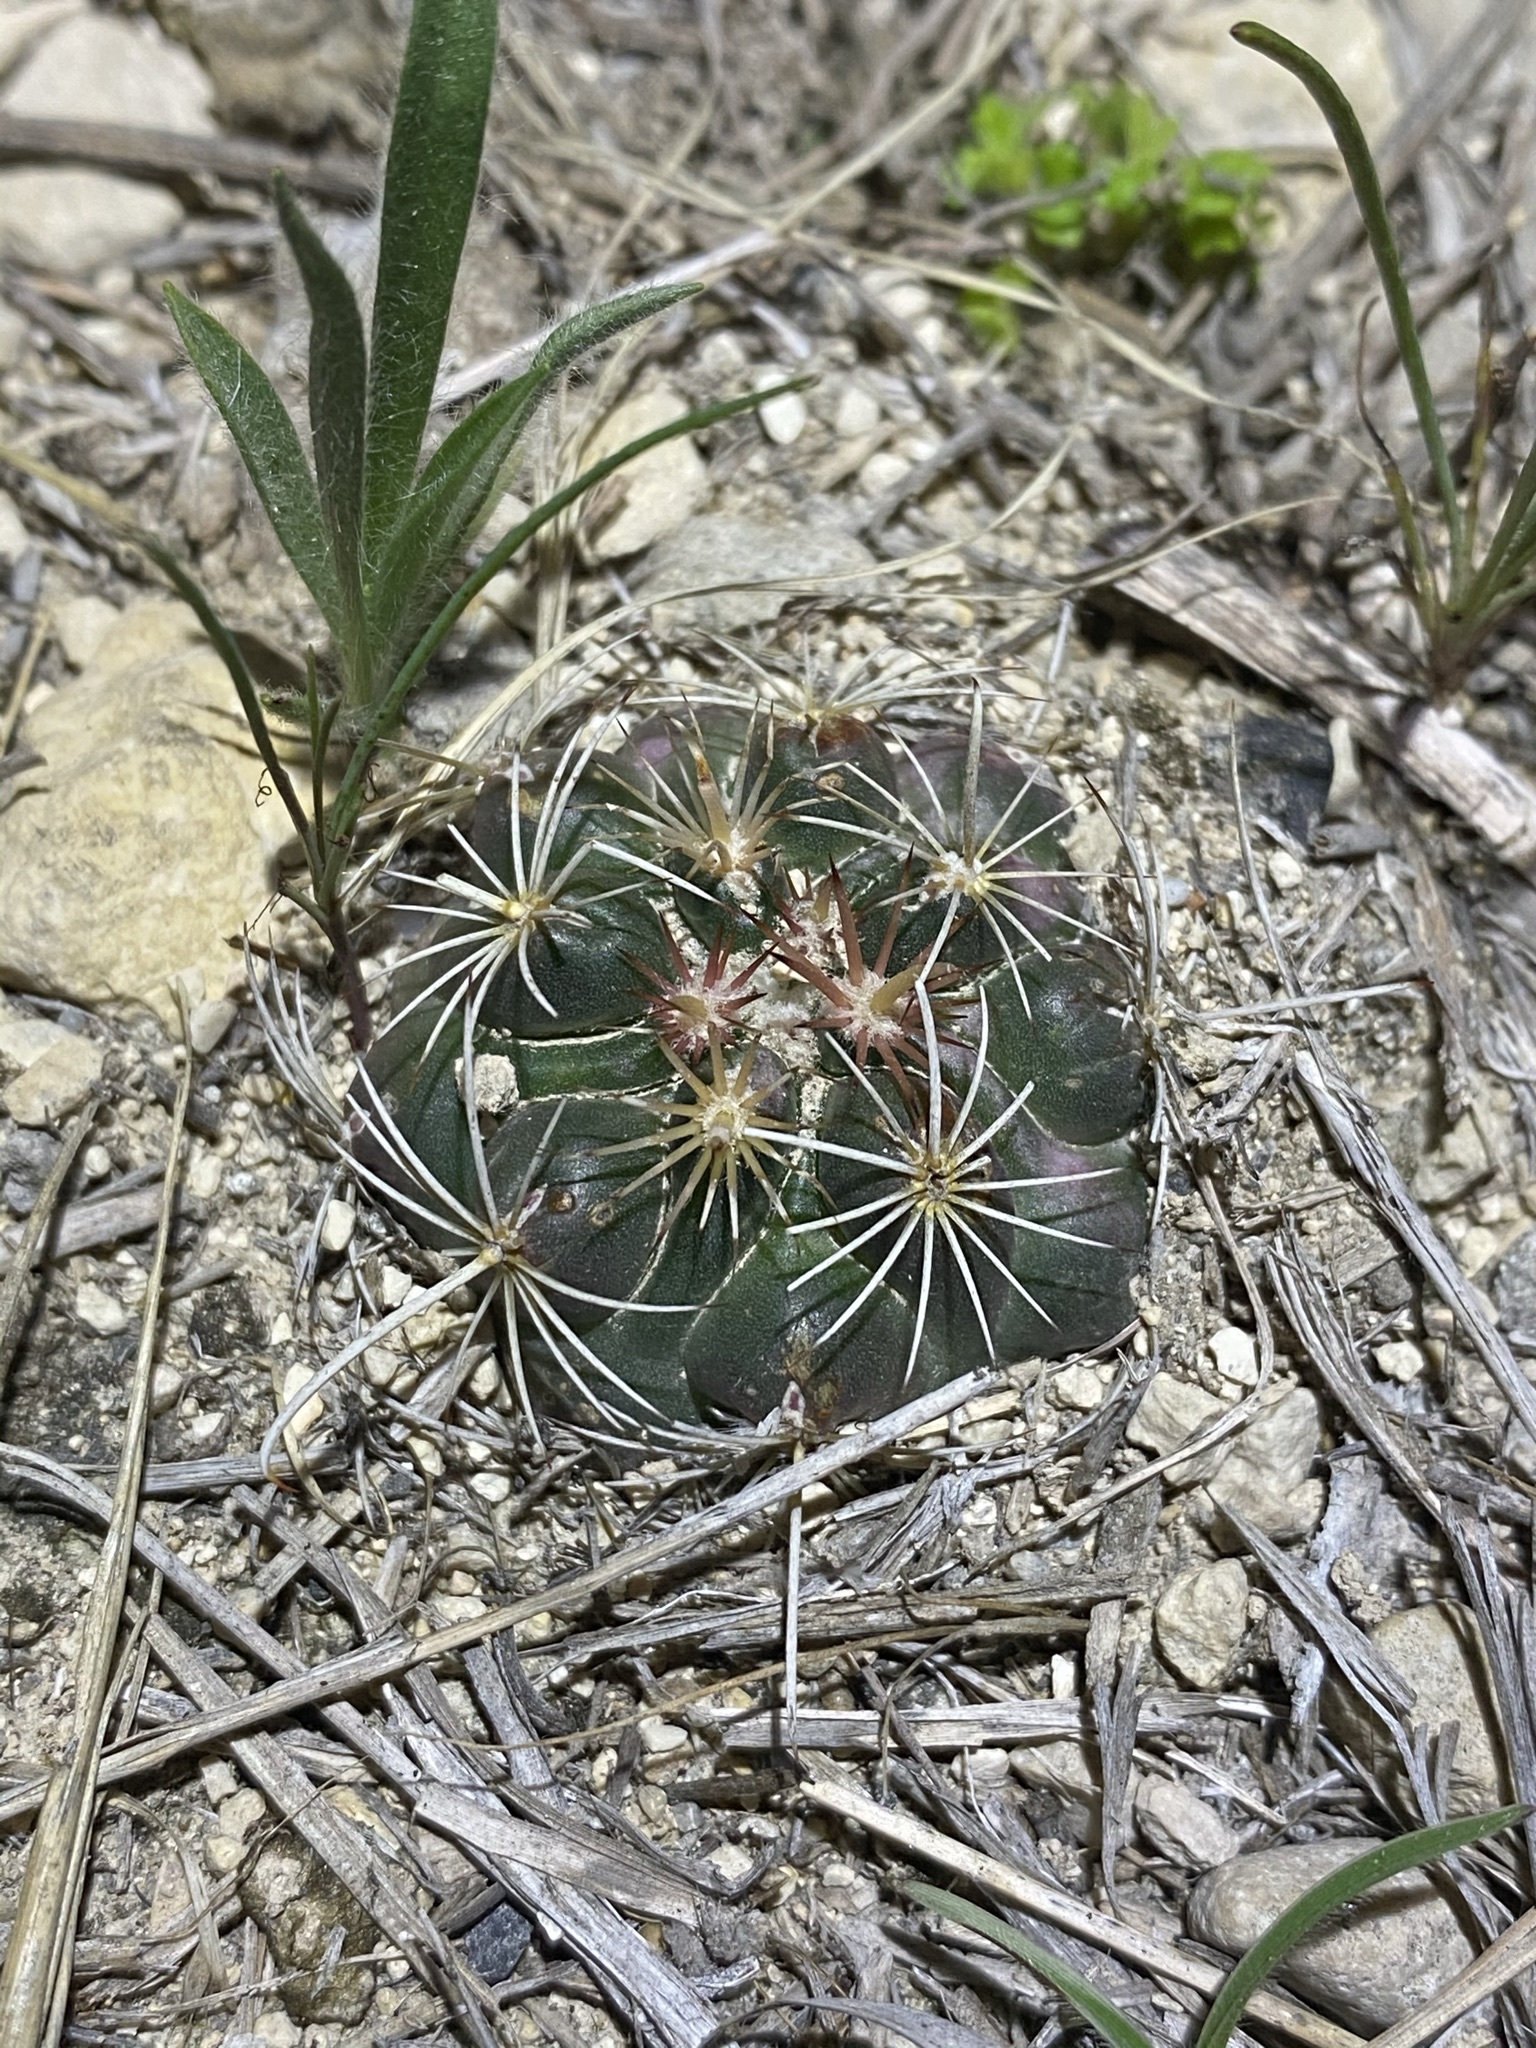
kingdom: Plantae
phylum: Tracheophyta
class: Magnoliopsida
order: Caryophyllales
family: Cactaceae
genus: Sclerocactus
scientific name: Sclerocactus brevihamatus
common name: Engelmann's fishhook cactus
